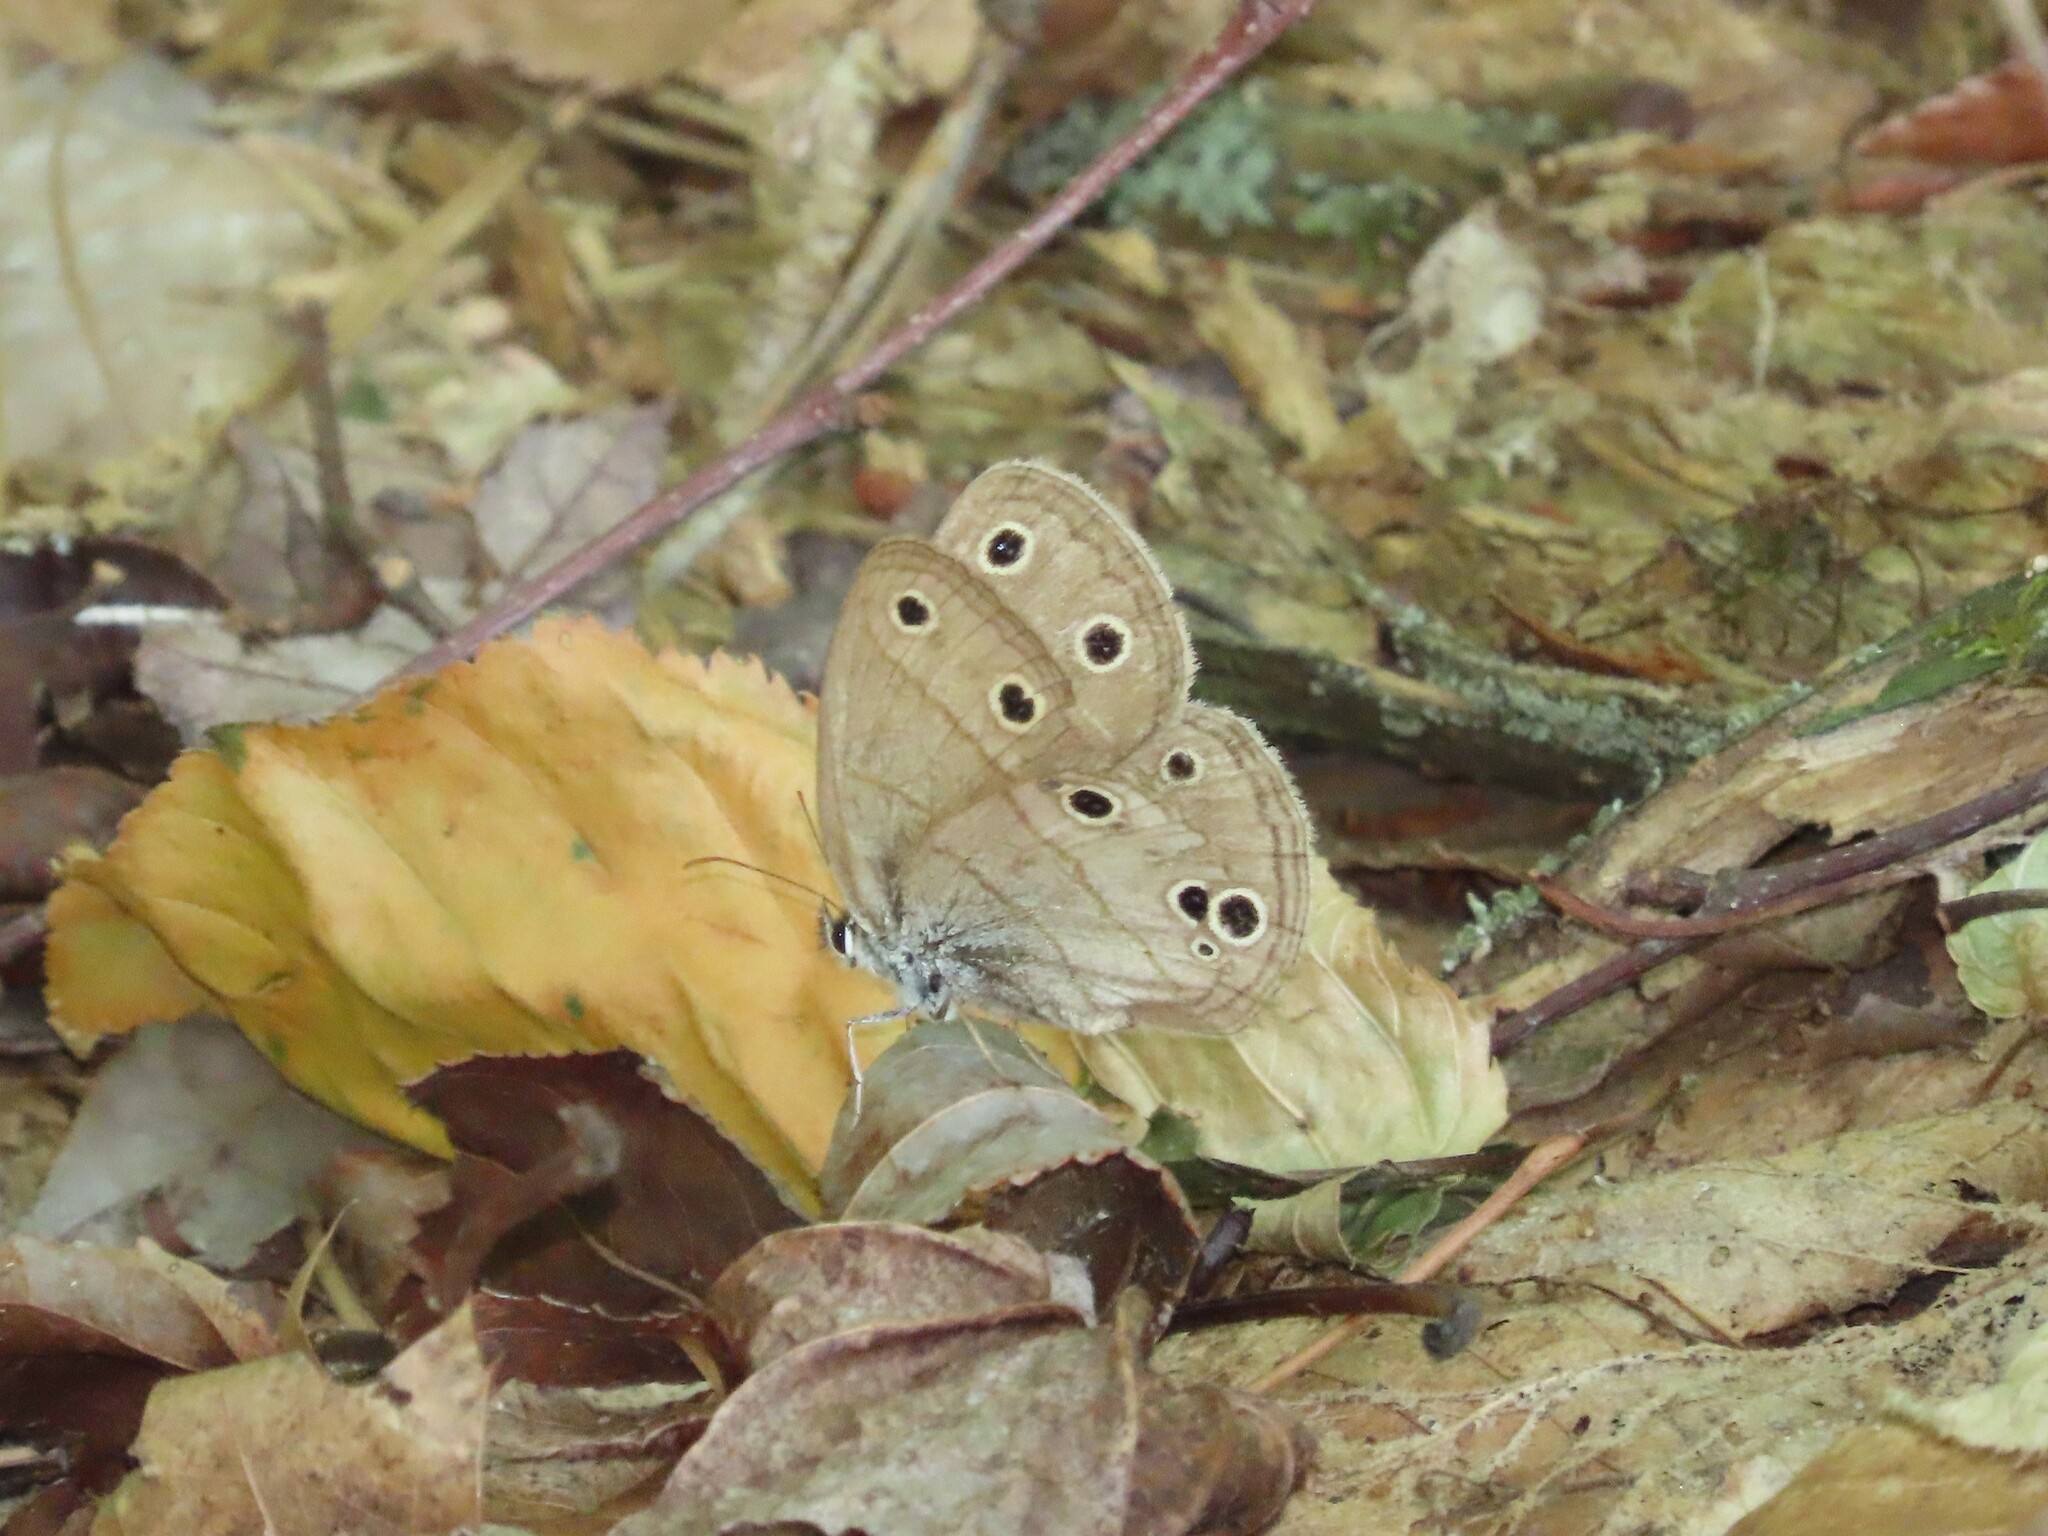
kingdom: Animalia
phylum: Arthropoda
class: Insecta
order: Lepidoptera
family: Nymphalidae
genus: Euptychia
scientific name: Euptychia cymela
